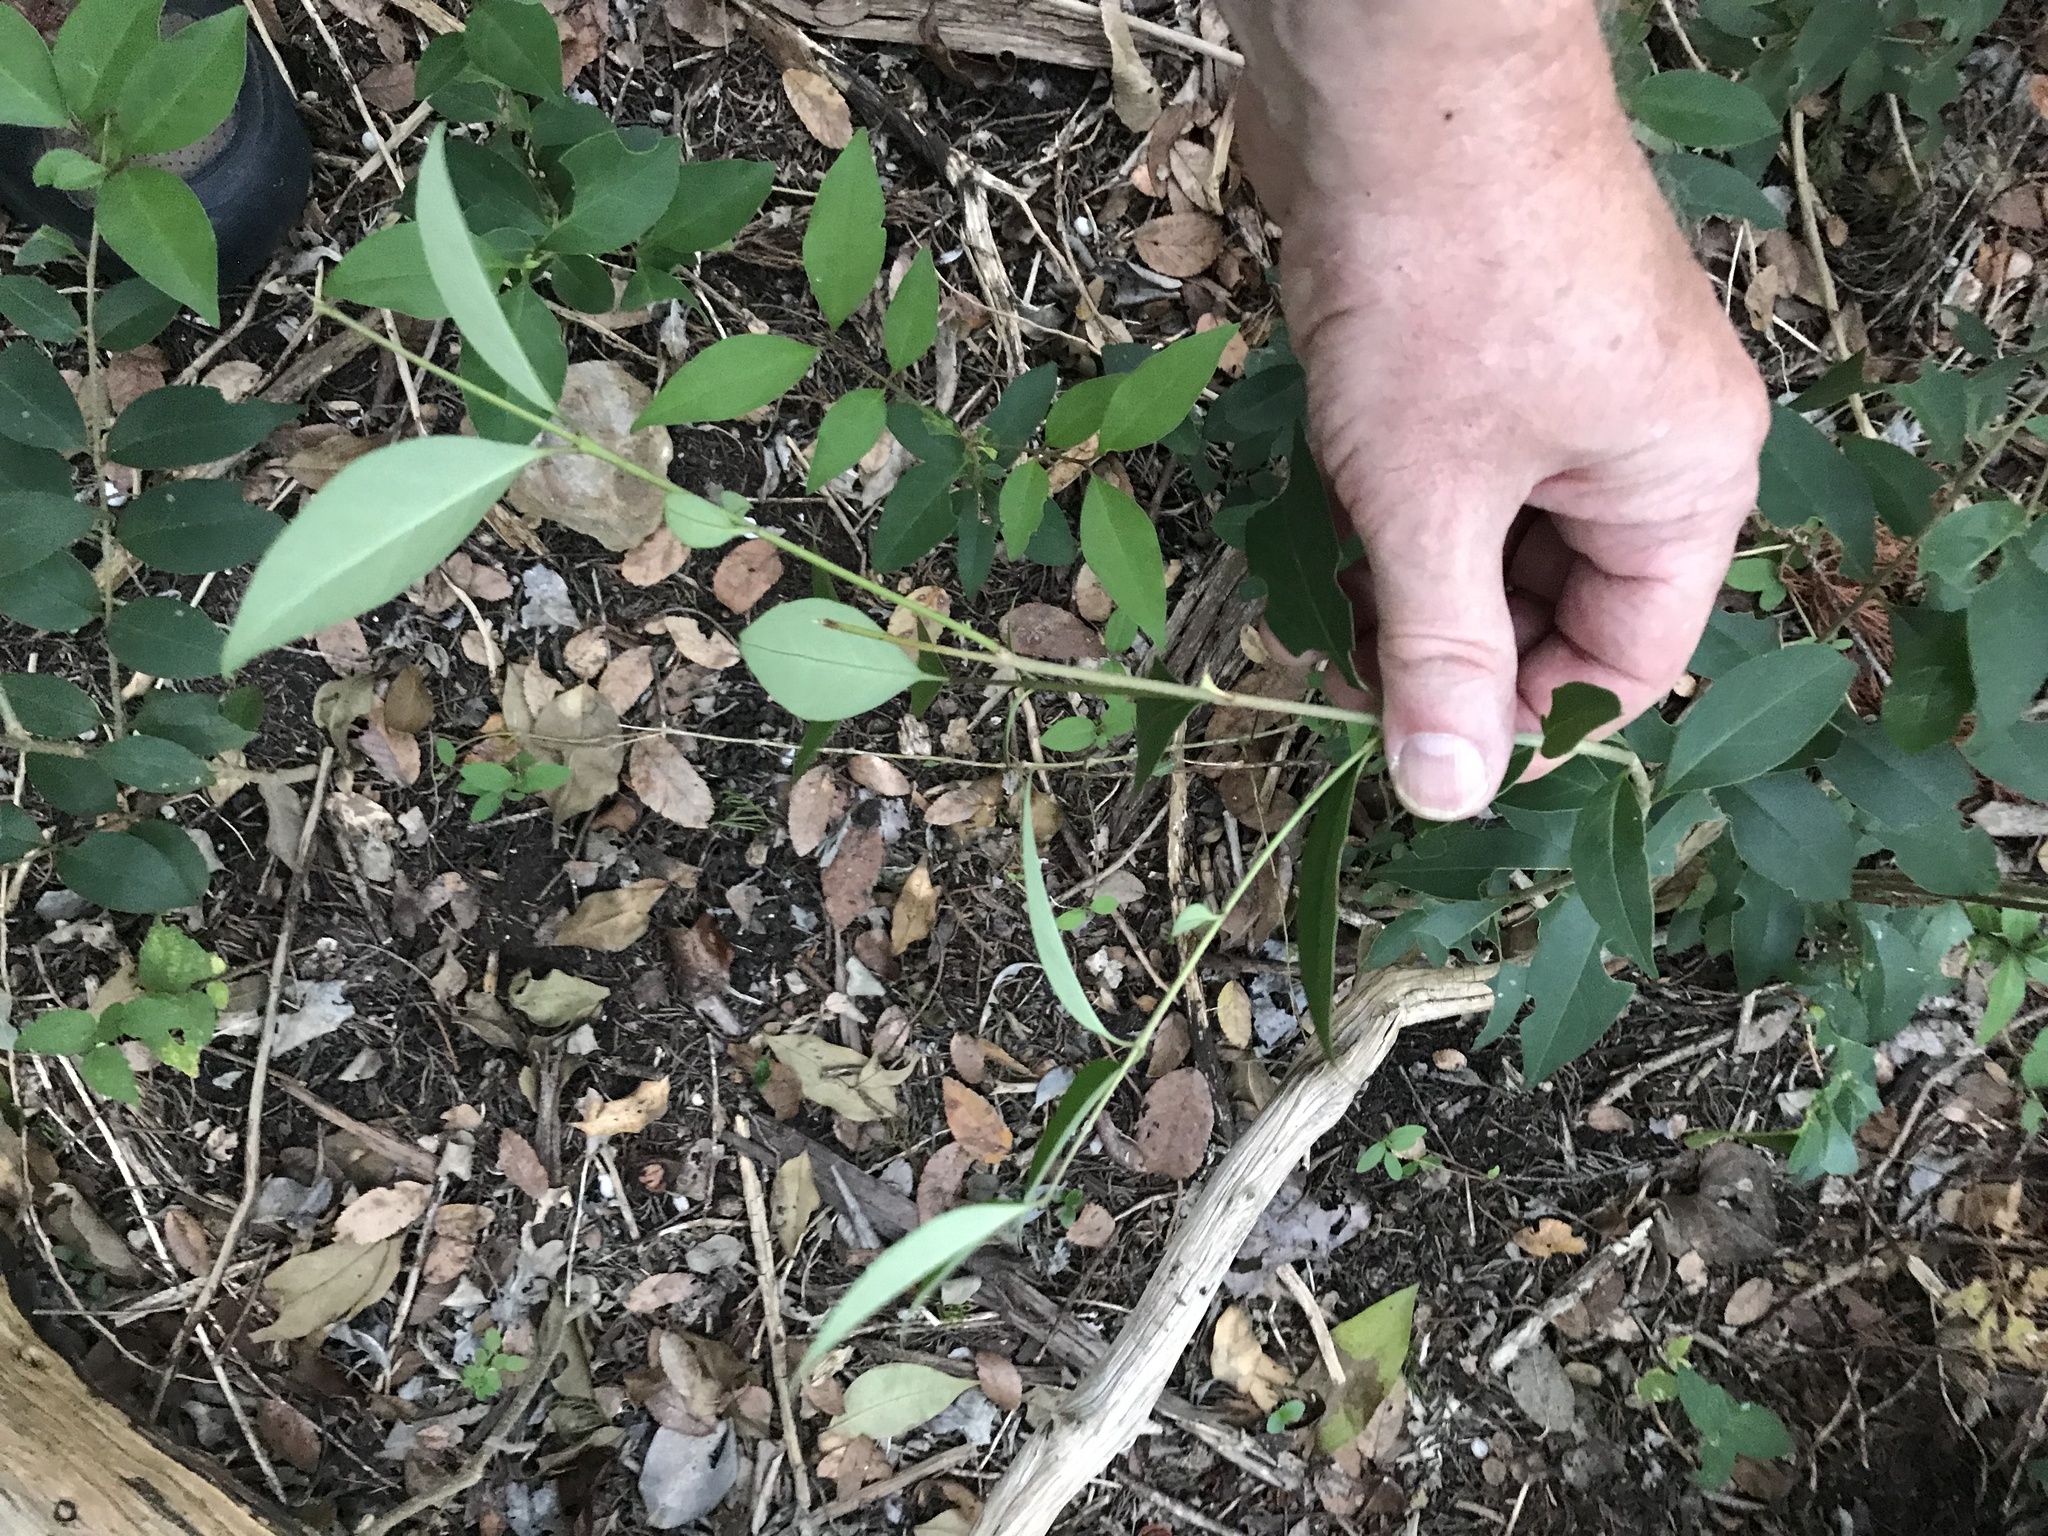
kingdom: Plantae
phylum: Tracheophyta
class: Magnoliopsida
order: Lamiales
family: Oleaceae
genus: Ligustrum
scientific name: Ligustrum lucidum
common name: Glossy privet
